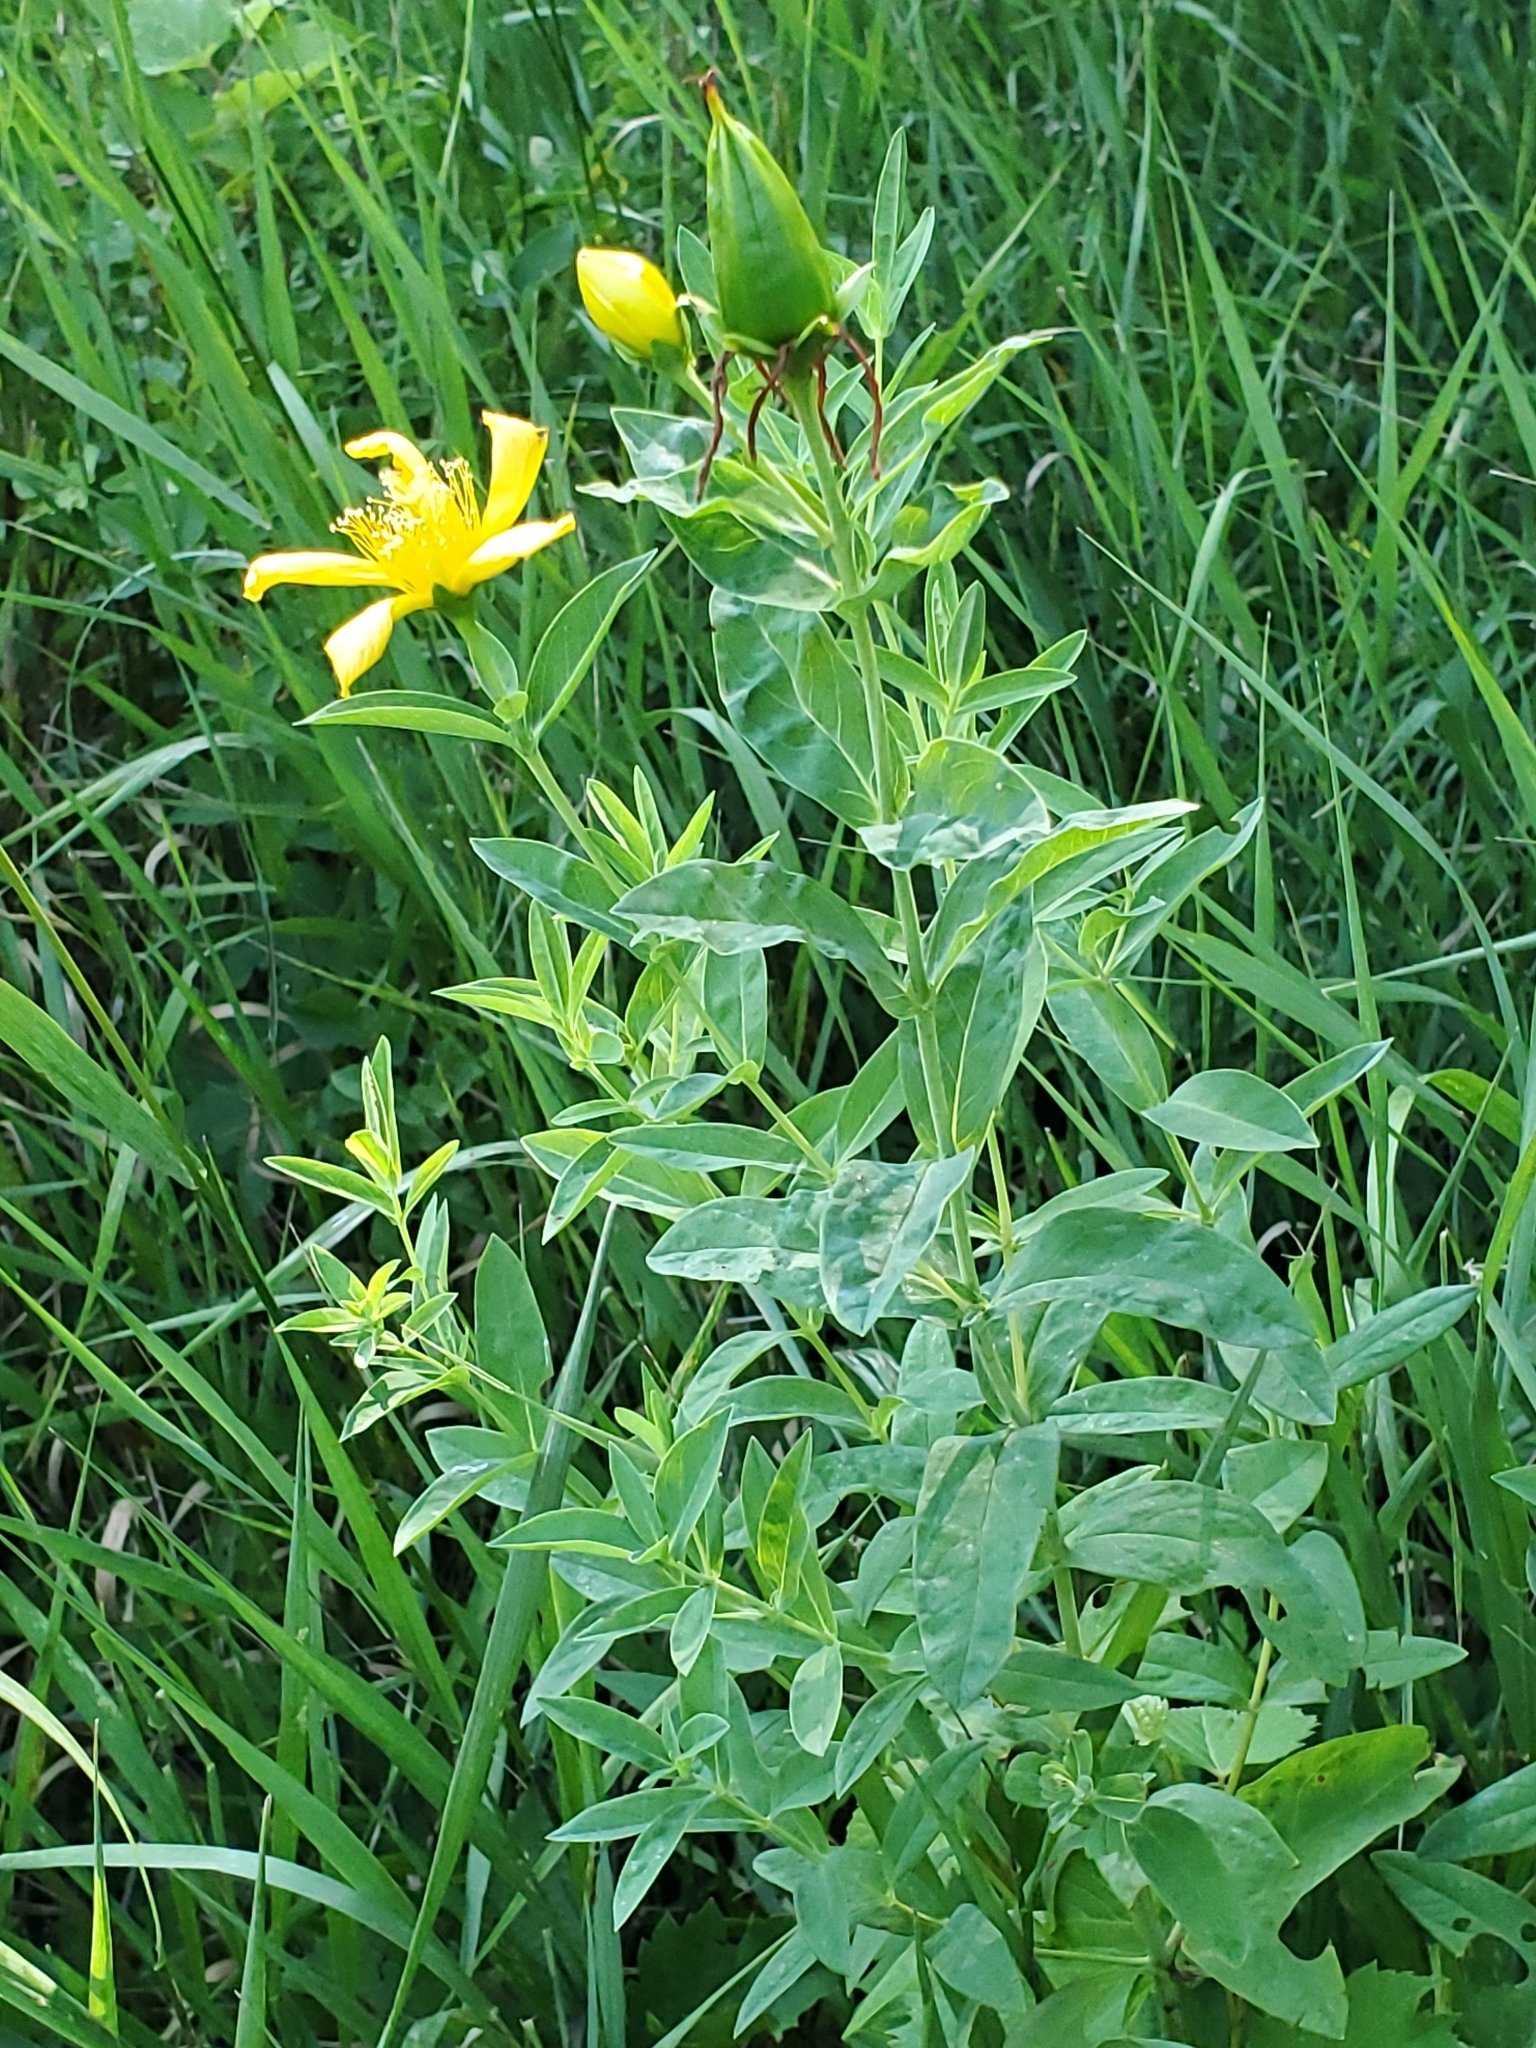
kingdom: Plantae
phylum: Tracheophyta
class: Magnoliopsida
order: Malpighiales
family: Hypericaceae
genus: Hypericum
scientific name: Hypericum ascyron
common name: Giant st. john's-wort
